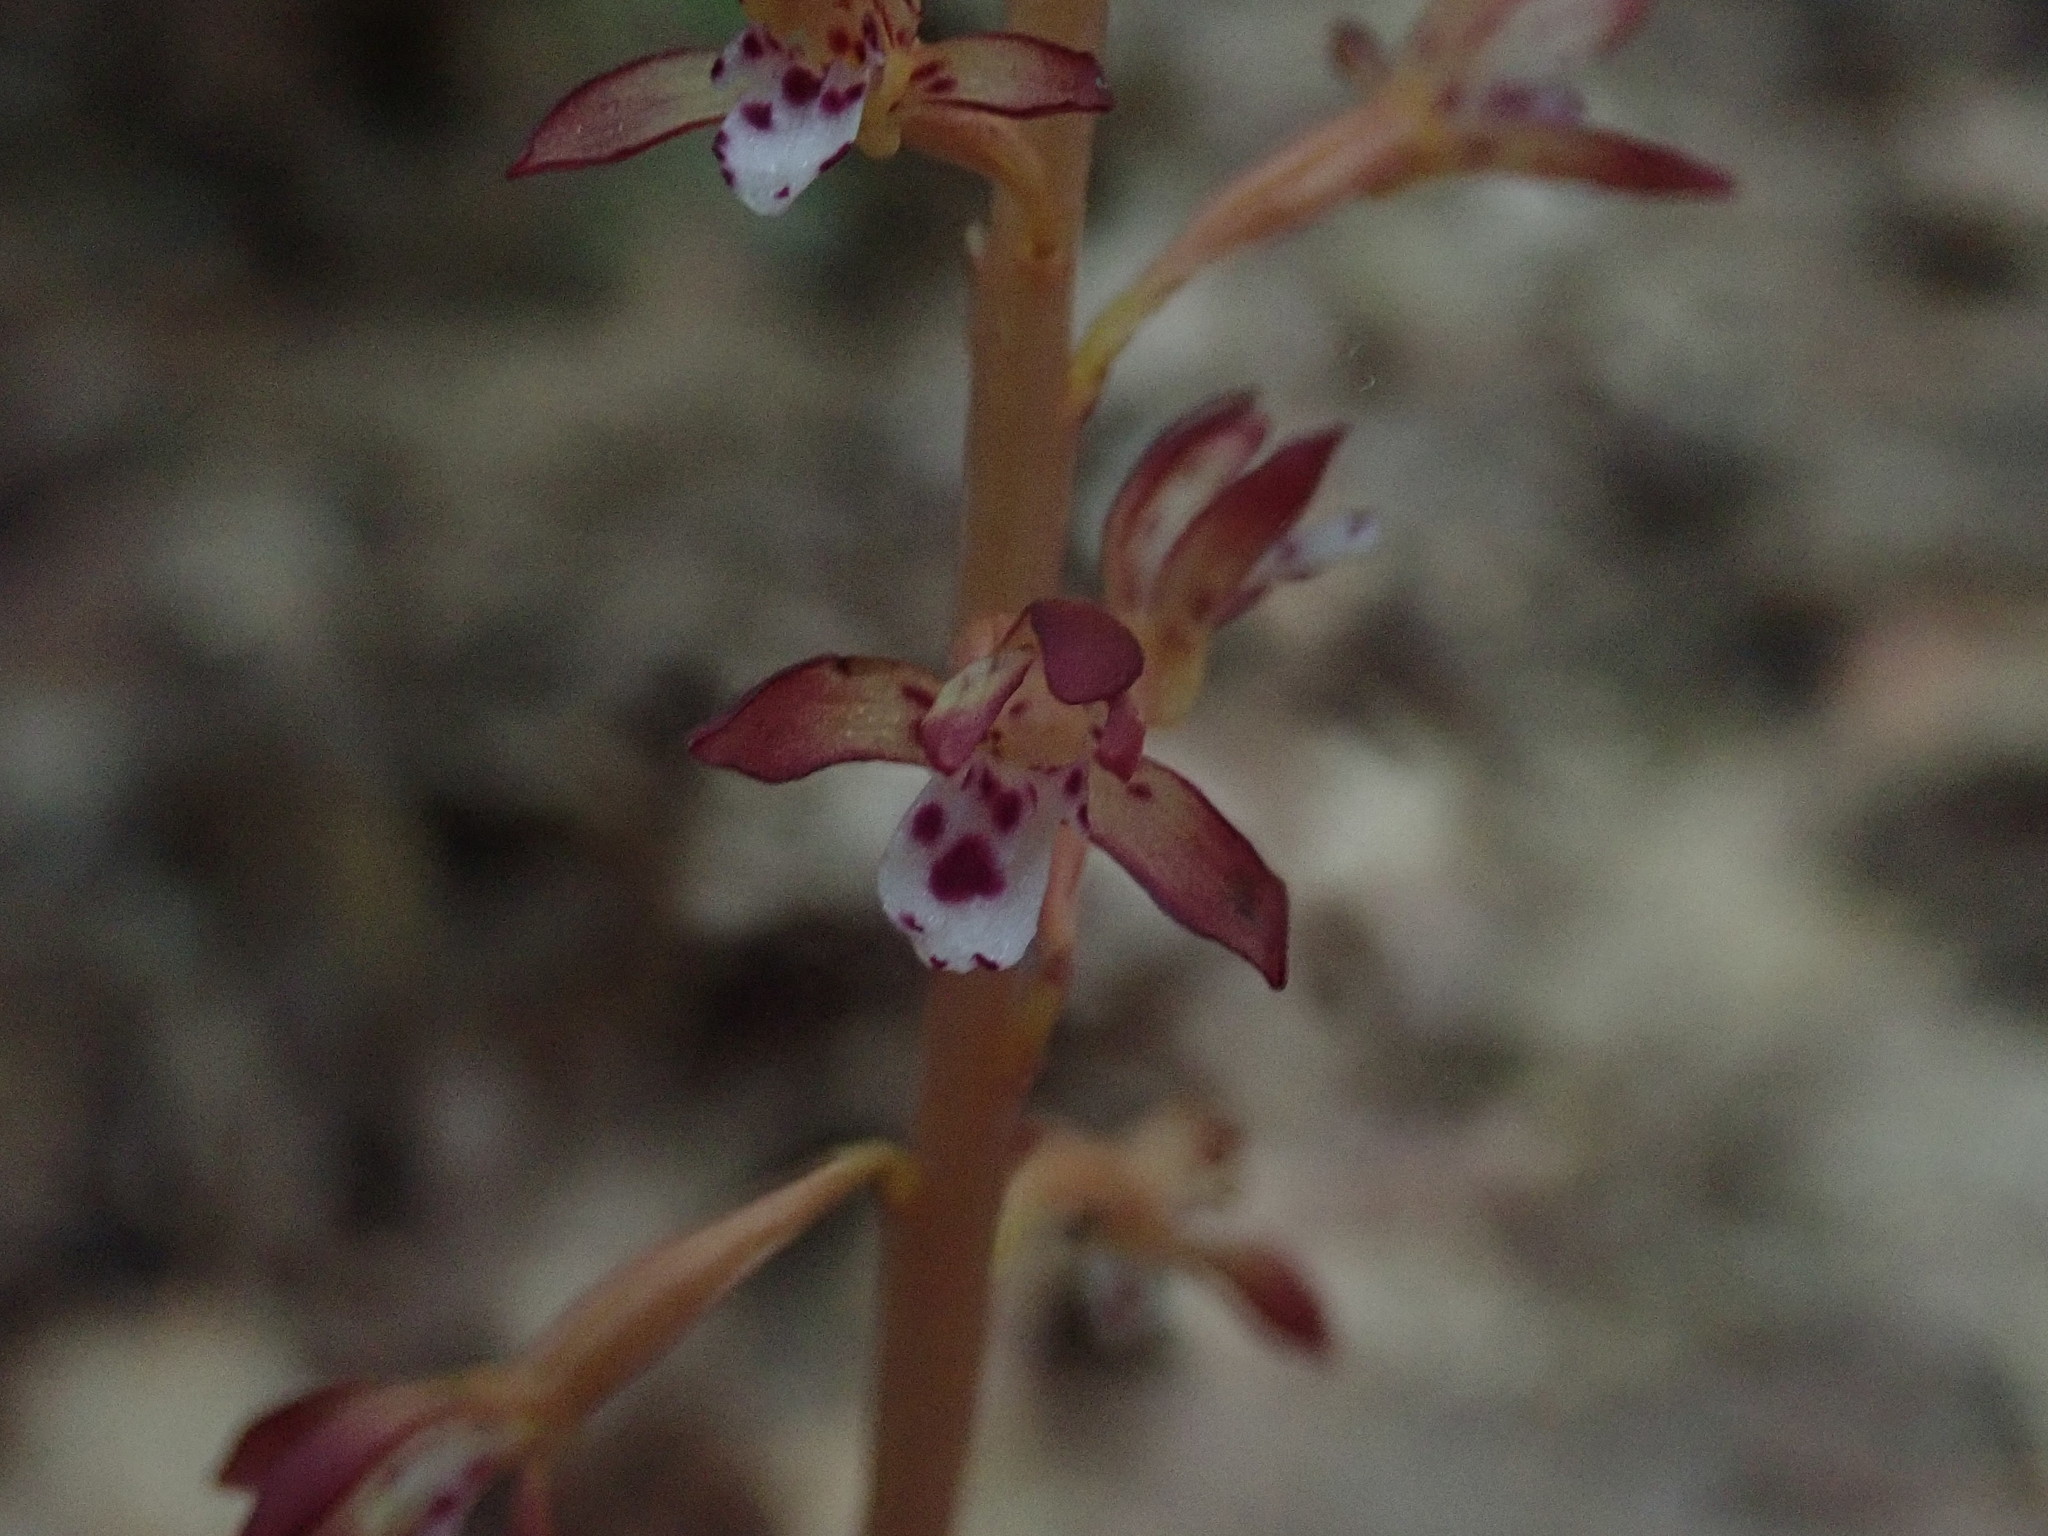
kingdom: Plantae
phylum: Tracheophyta
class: Liliopsida
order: Asparagales
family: Orchidaceae
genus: Corallorhiza
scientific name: Corallorhiza maculata
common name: Spotted coralroot
